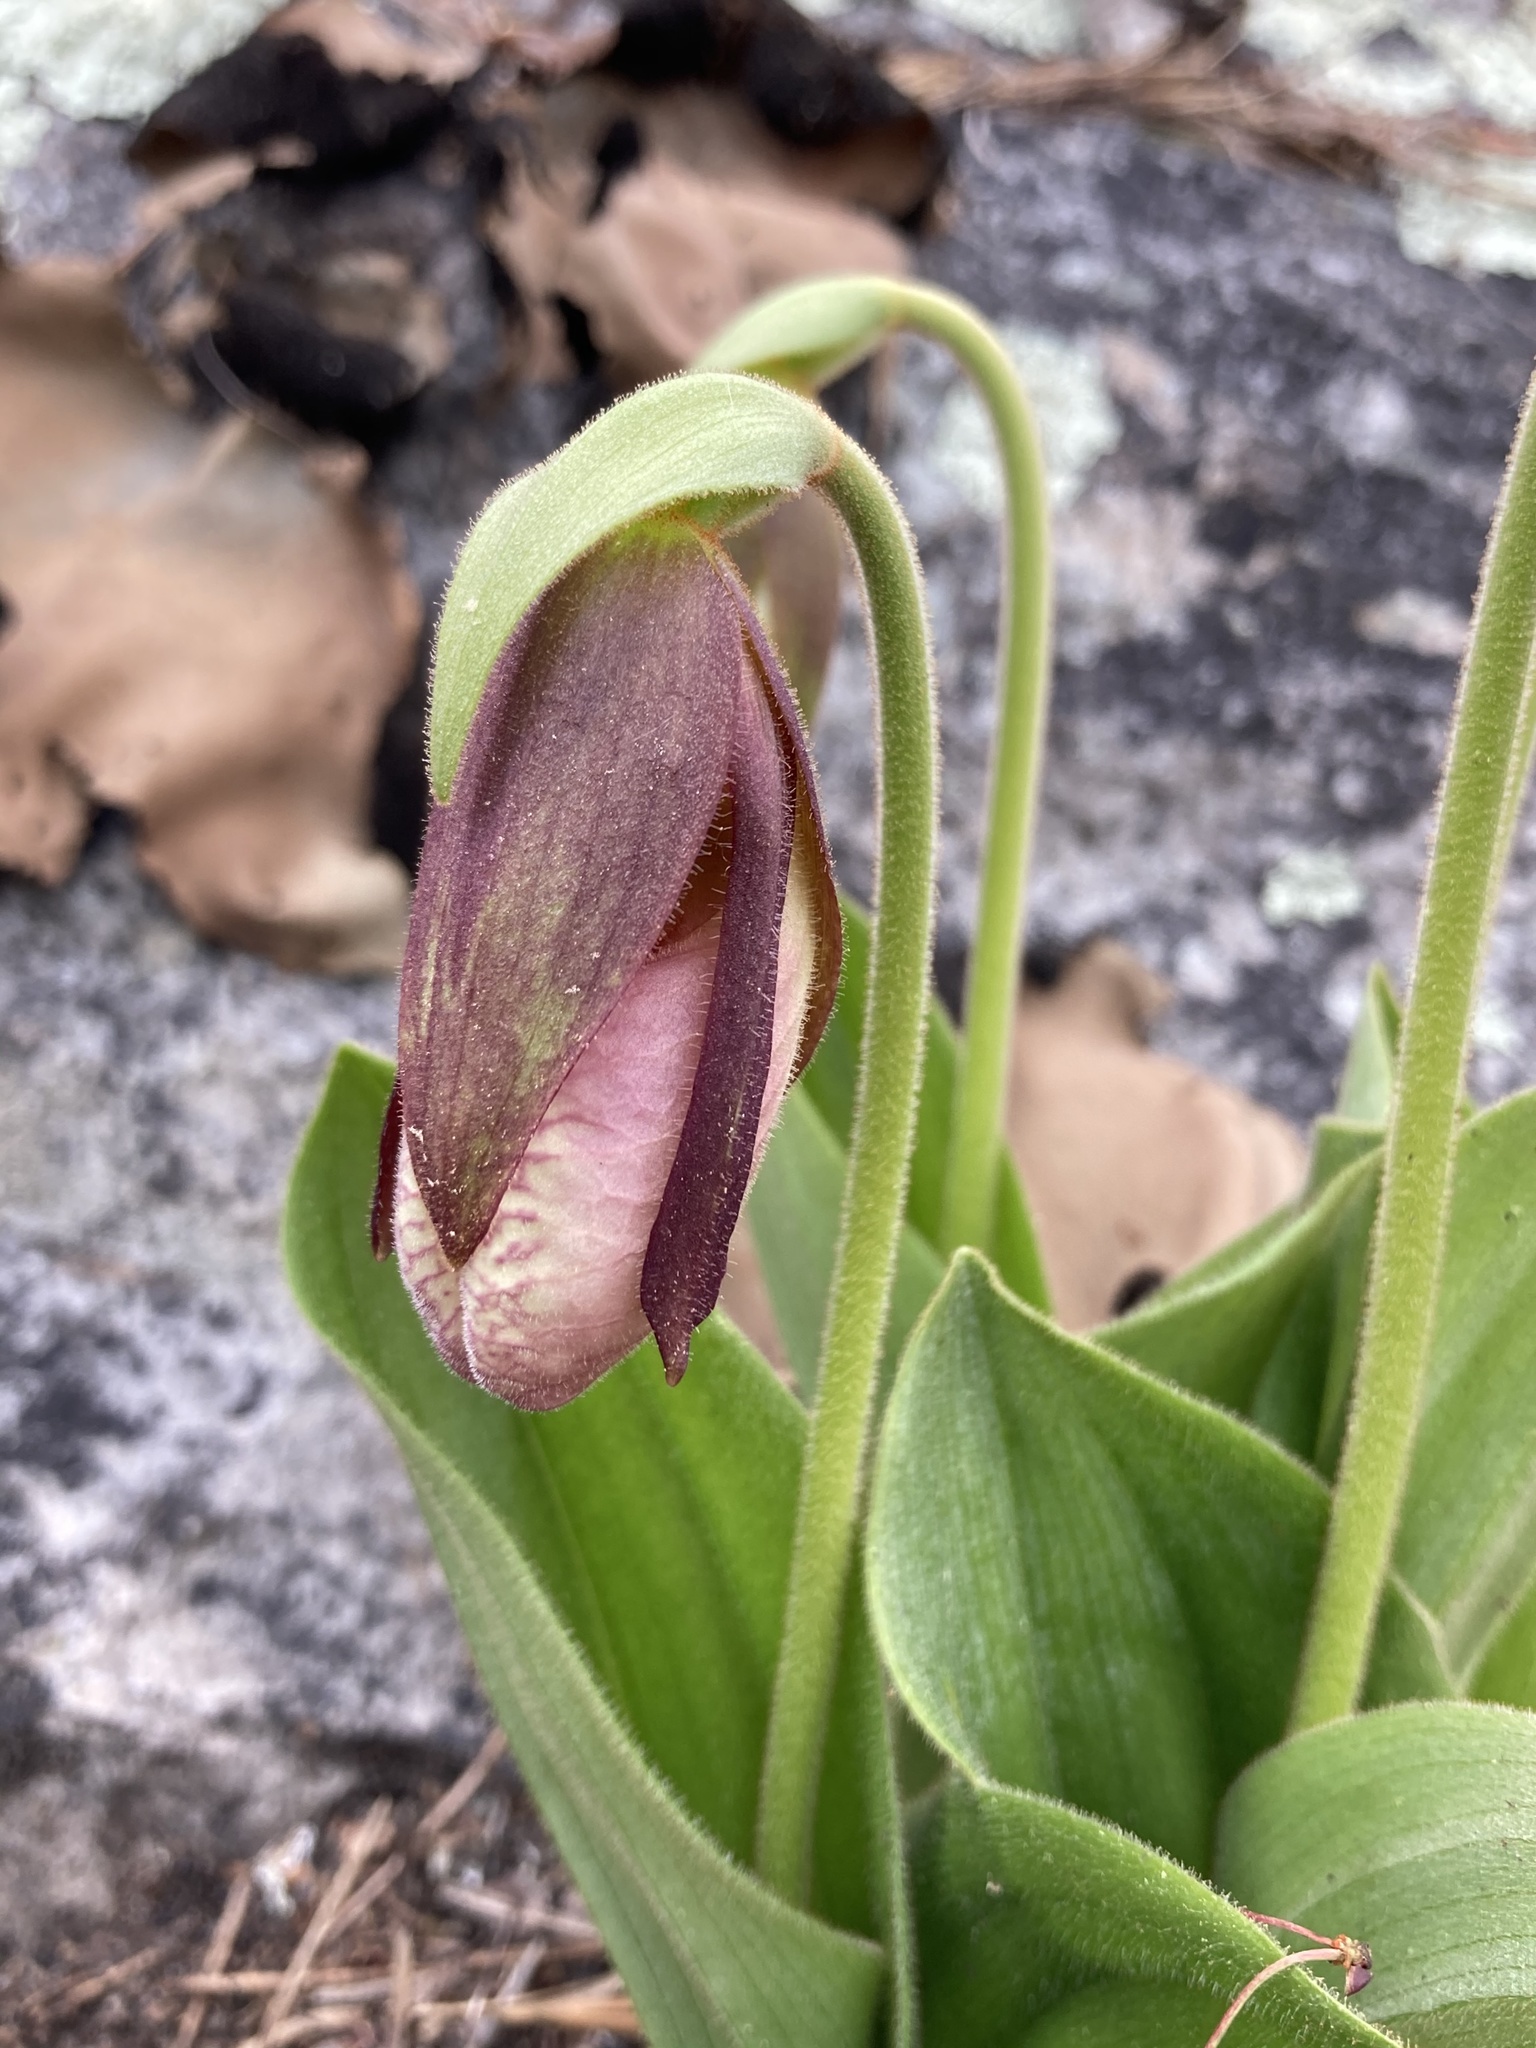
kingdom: Plantae
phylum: Tracheophyta
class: Liliopsida
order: Asparagales
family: Orchidaceae
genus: Cypripedium
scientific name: Cypripedium acaule
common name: Pink lady's-slipper
